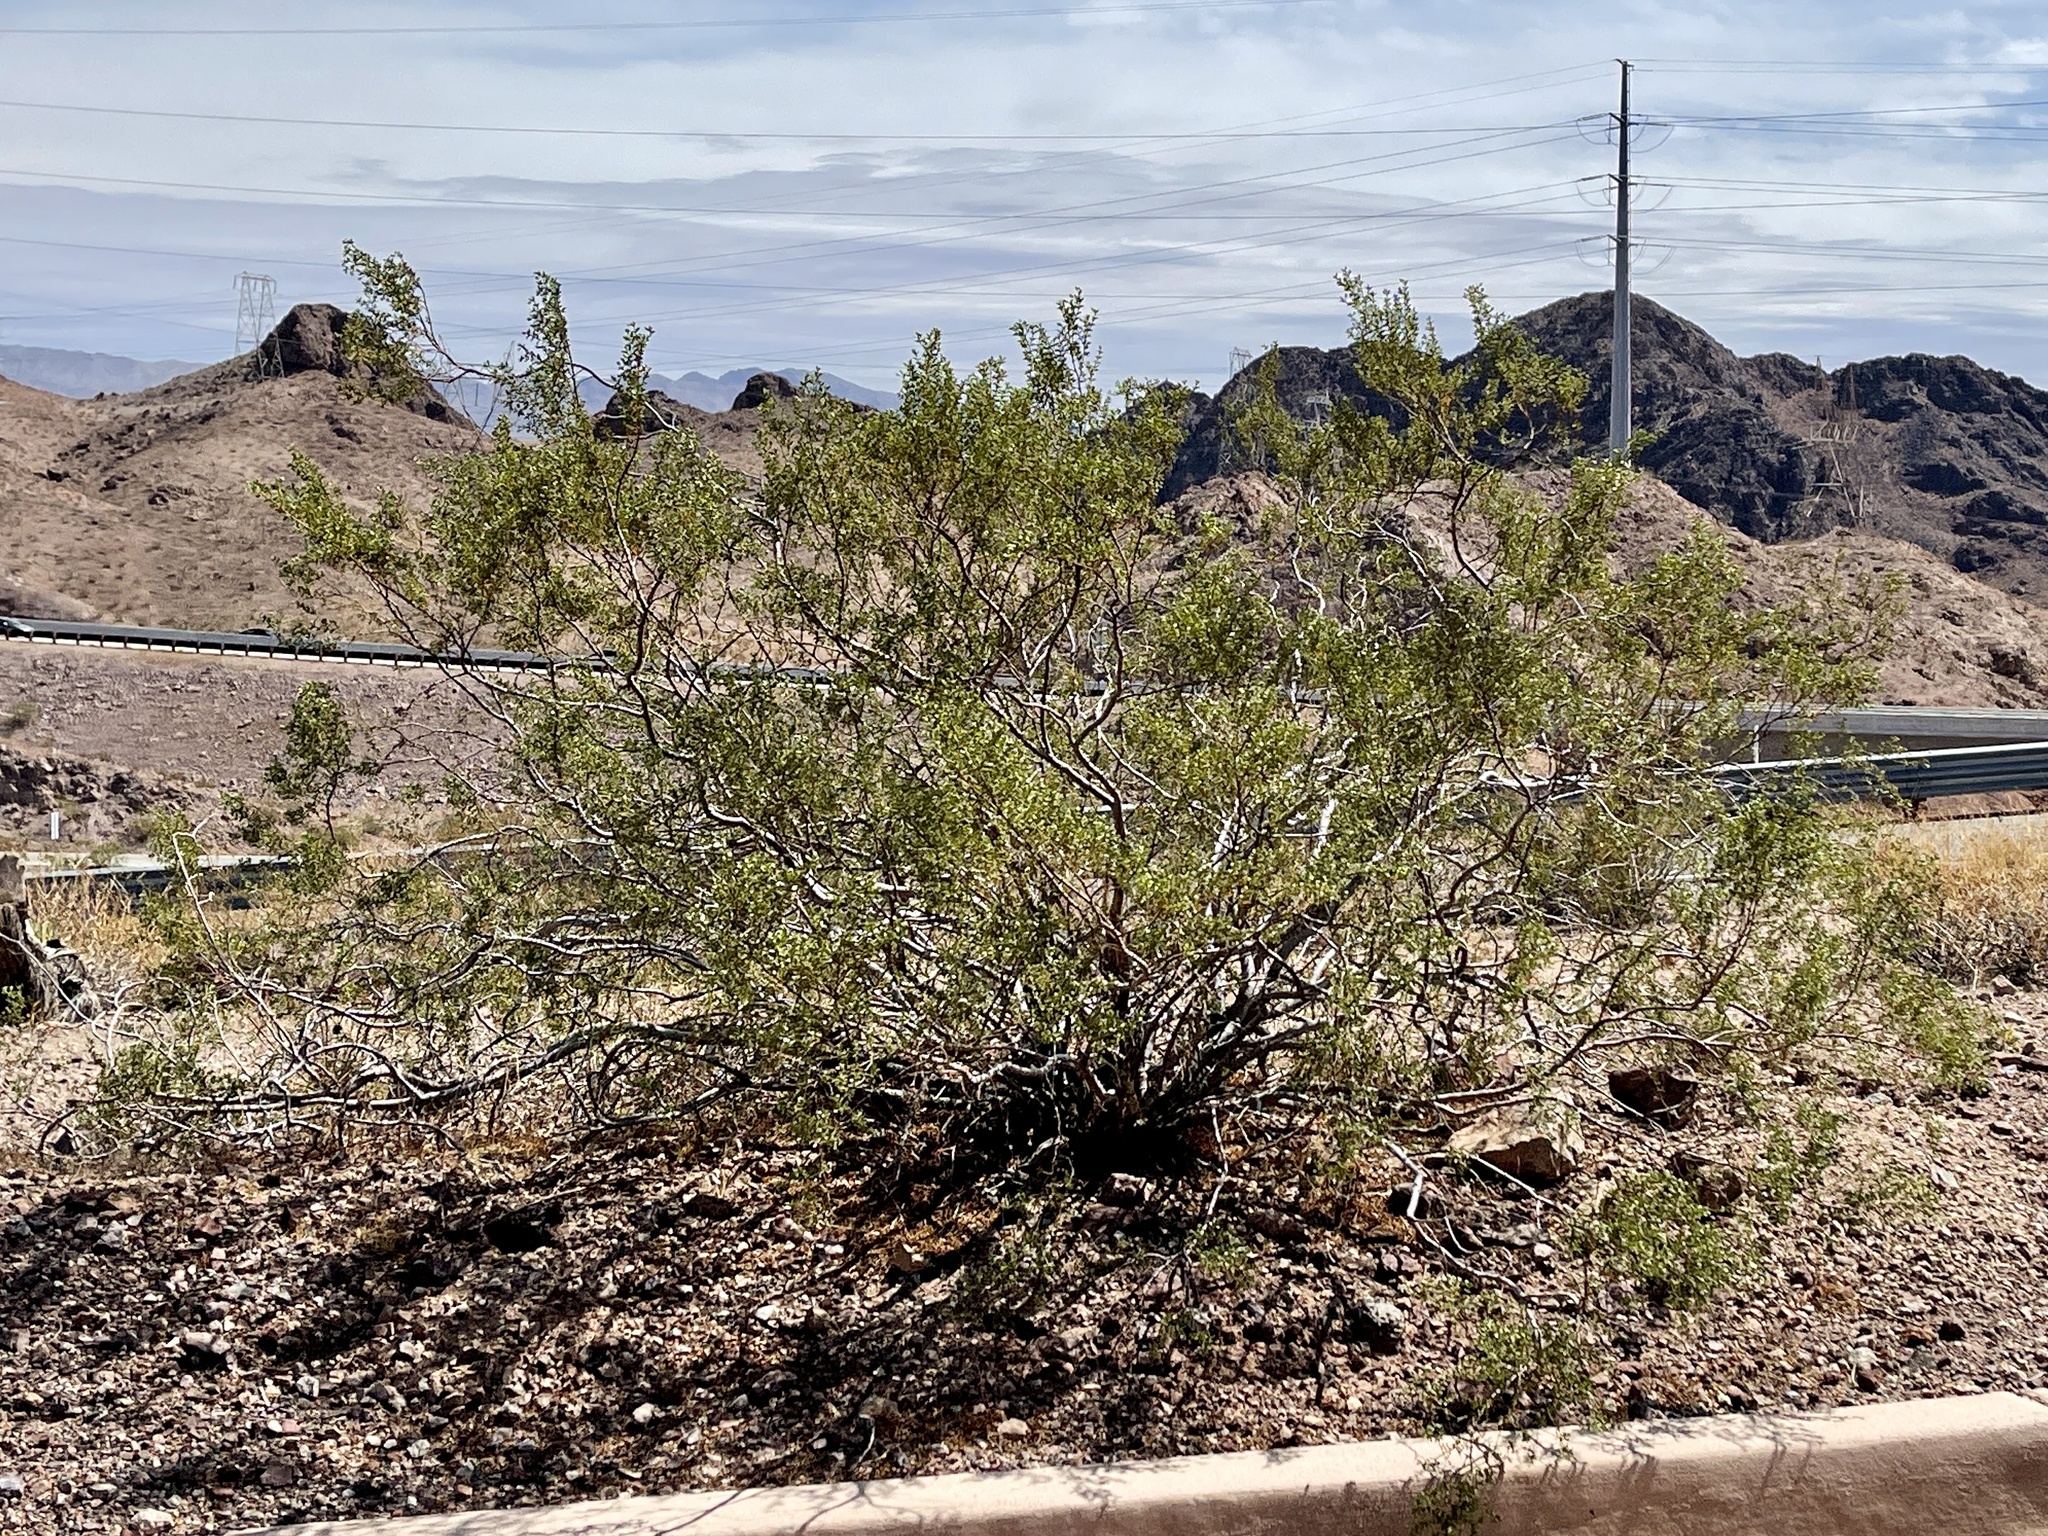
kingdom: Plantae
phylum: Tracheophyta
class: Magnoliopsida
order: Zygophyllales
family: Zygophyllaceae
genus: Larrea
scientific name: Larrea tridentata
